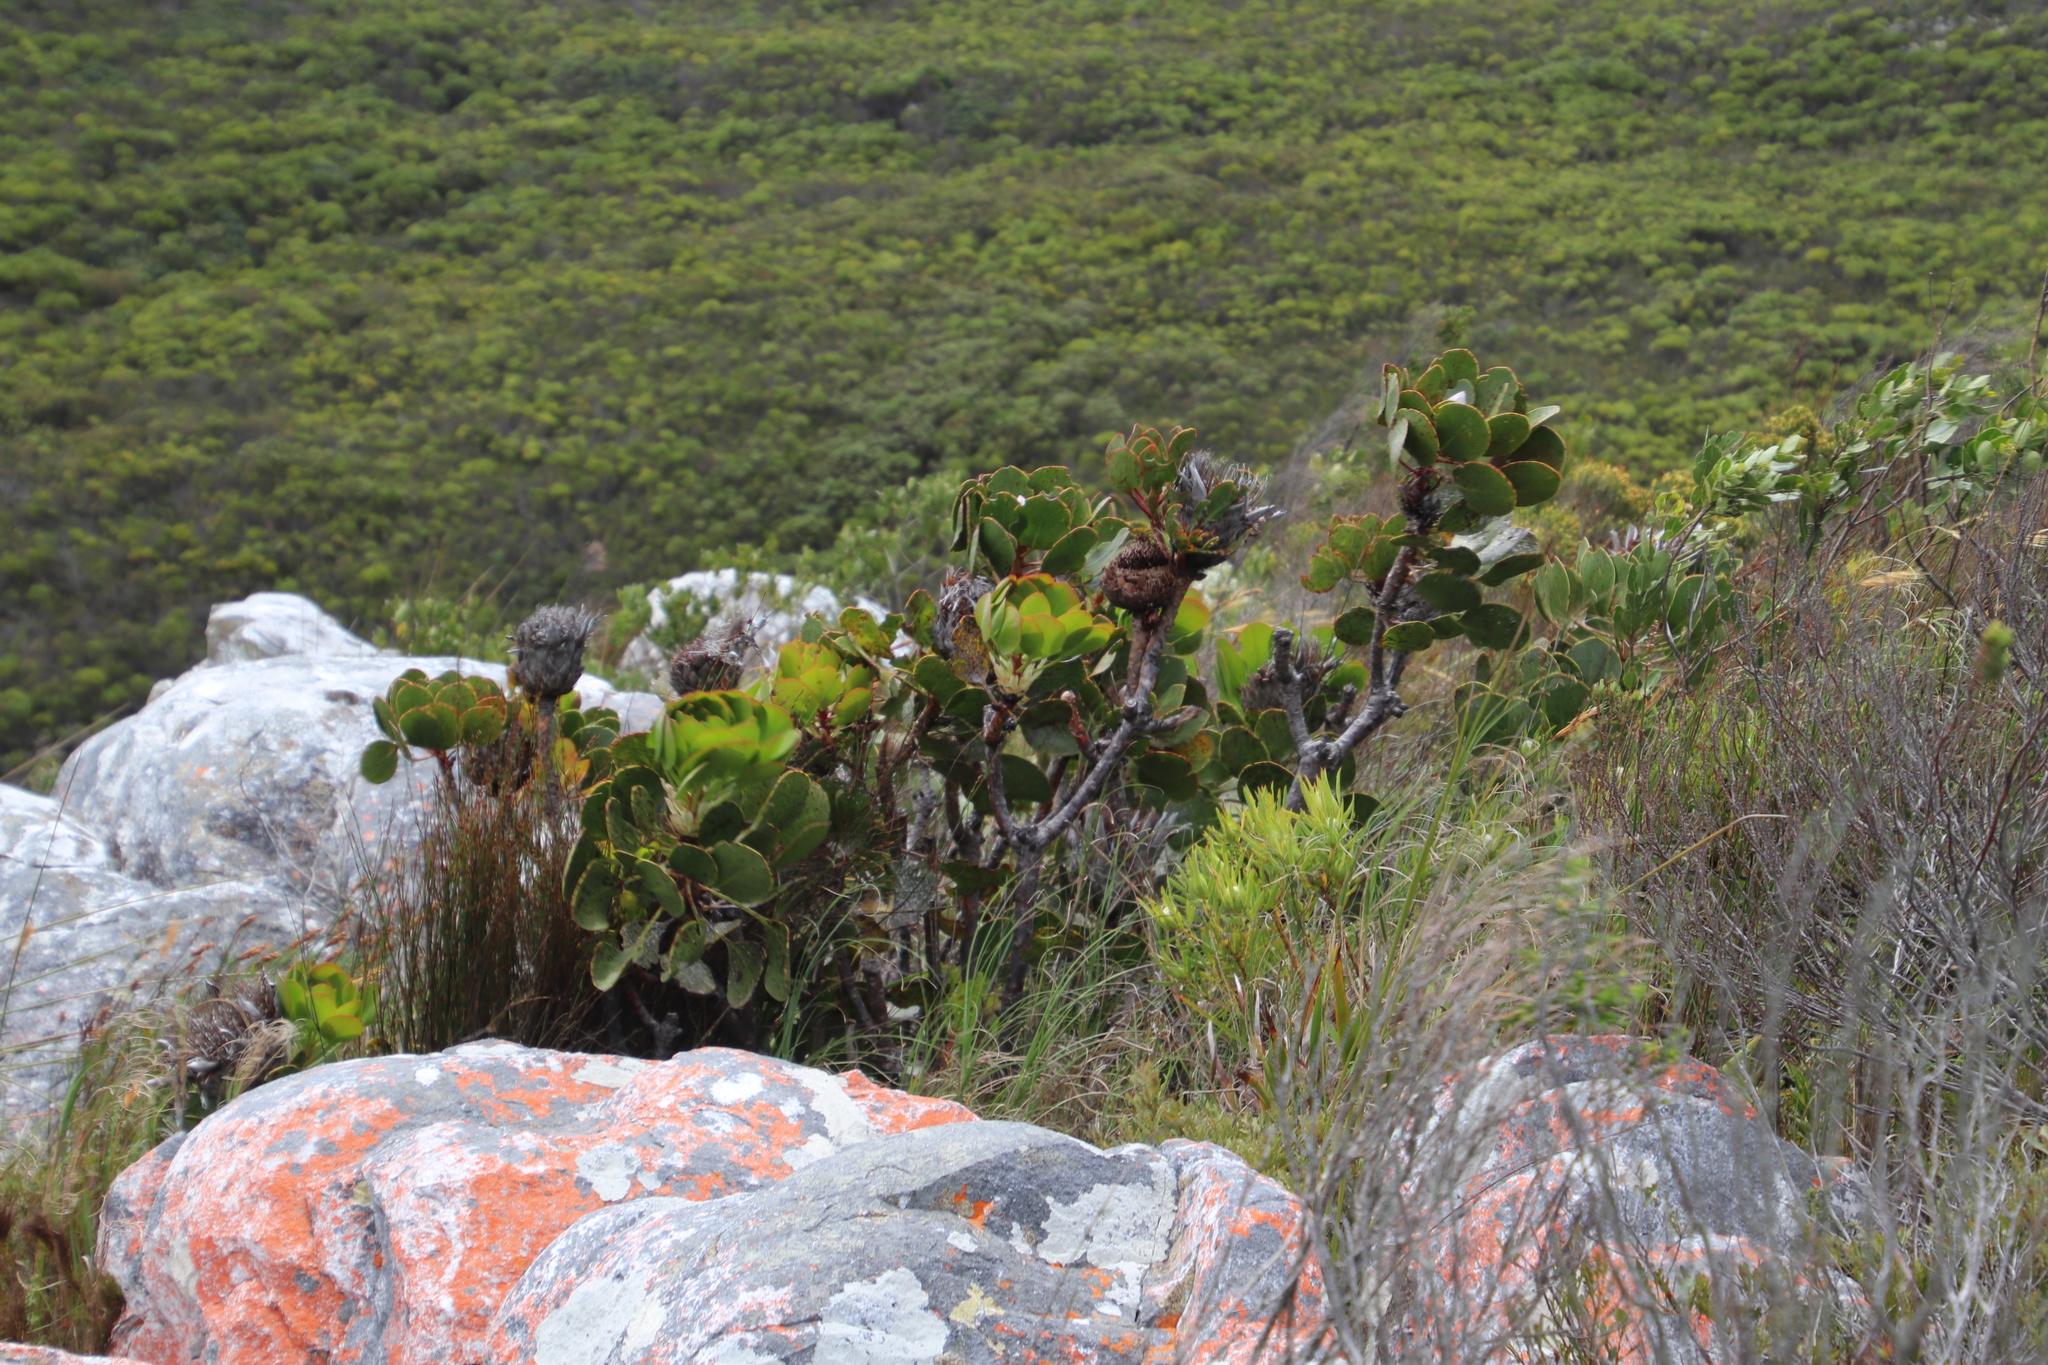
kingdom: Plantae
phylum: Tracheophyta
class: Magnoliopsida
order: Proteales
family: Proteaceae
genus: Protea
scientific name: Protea cynaroides
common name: King protea
